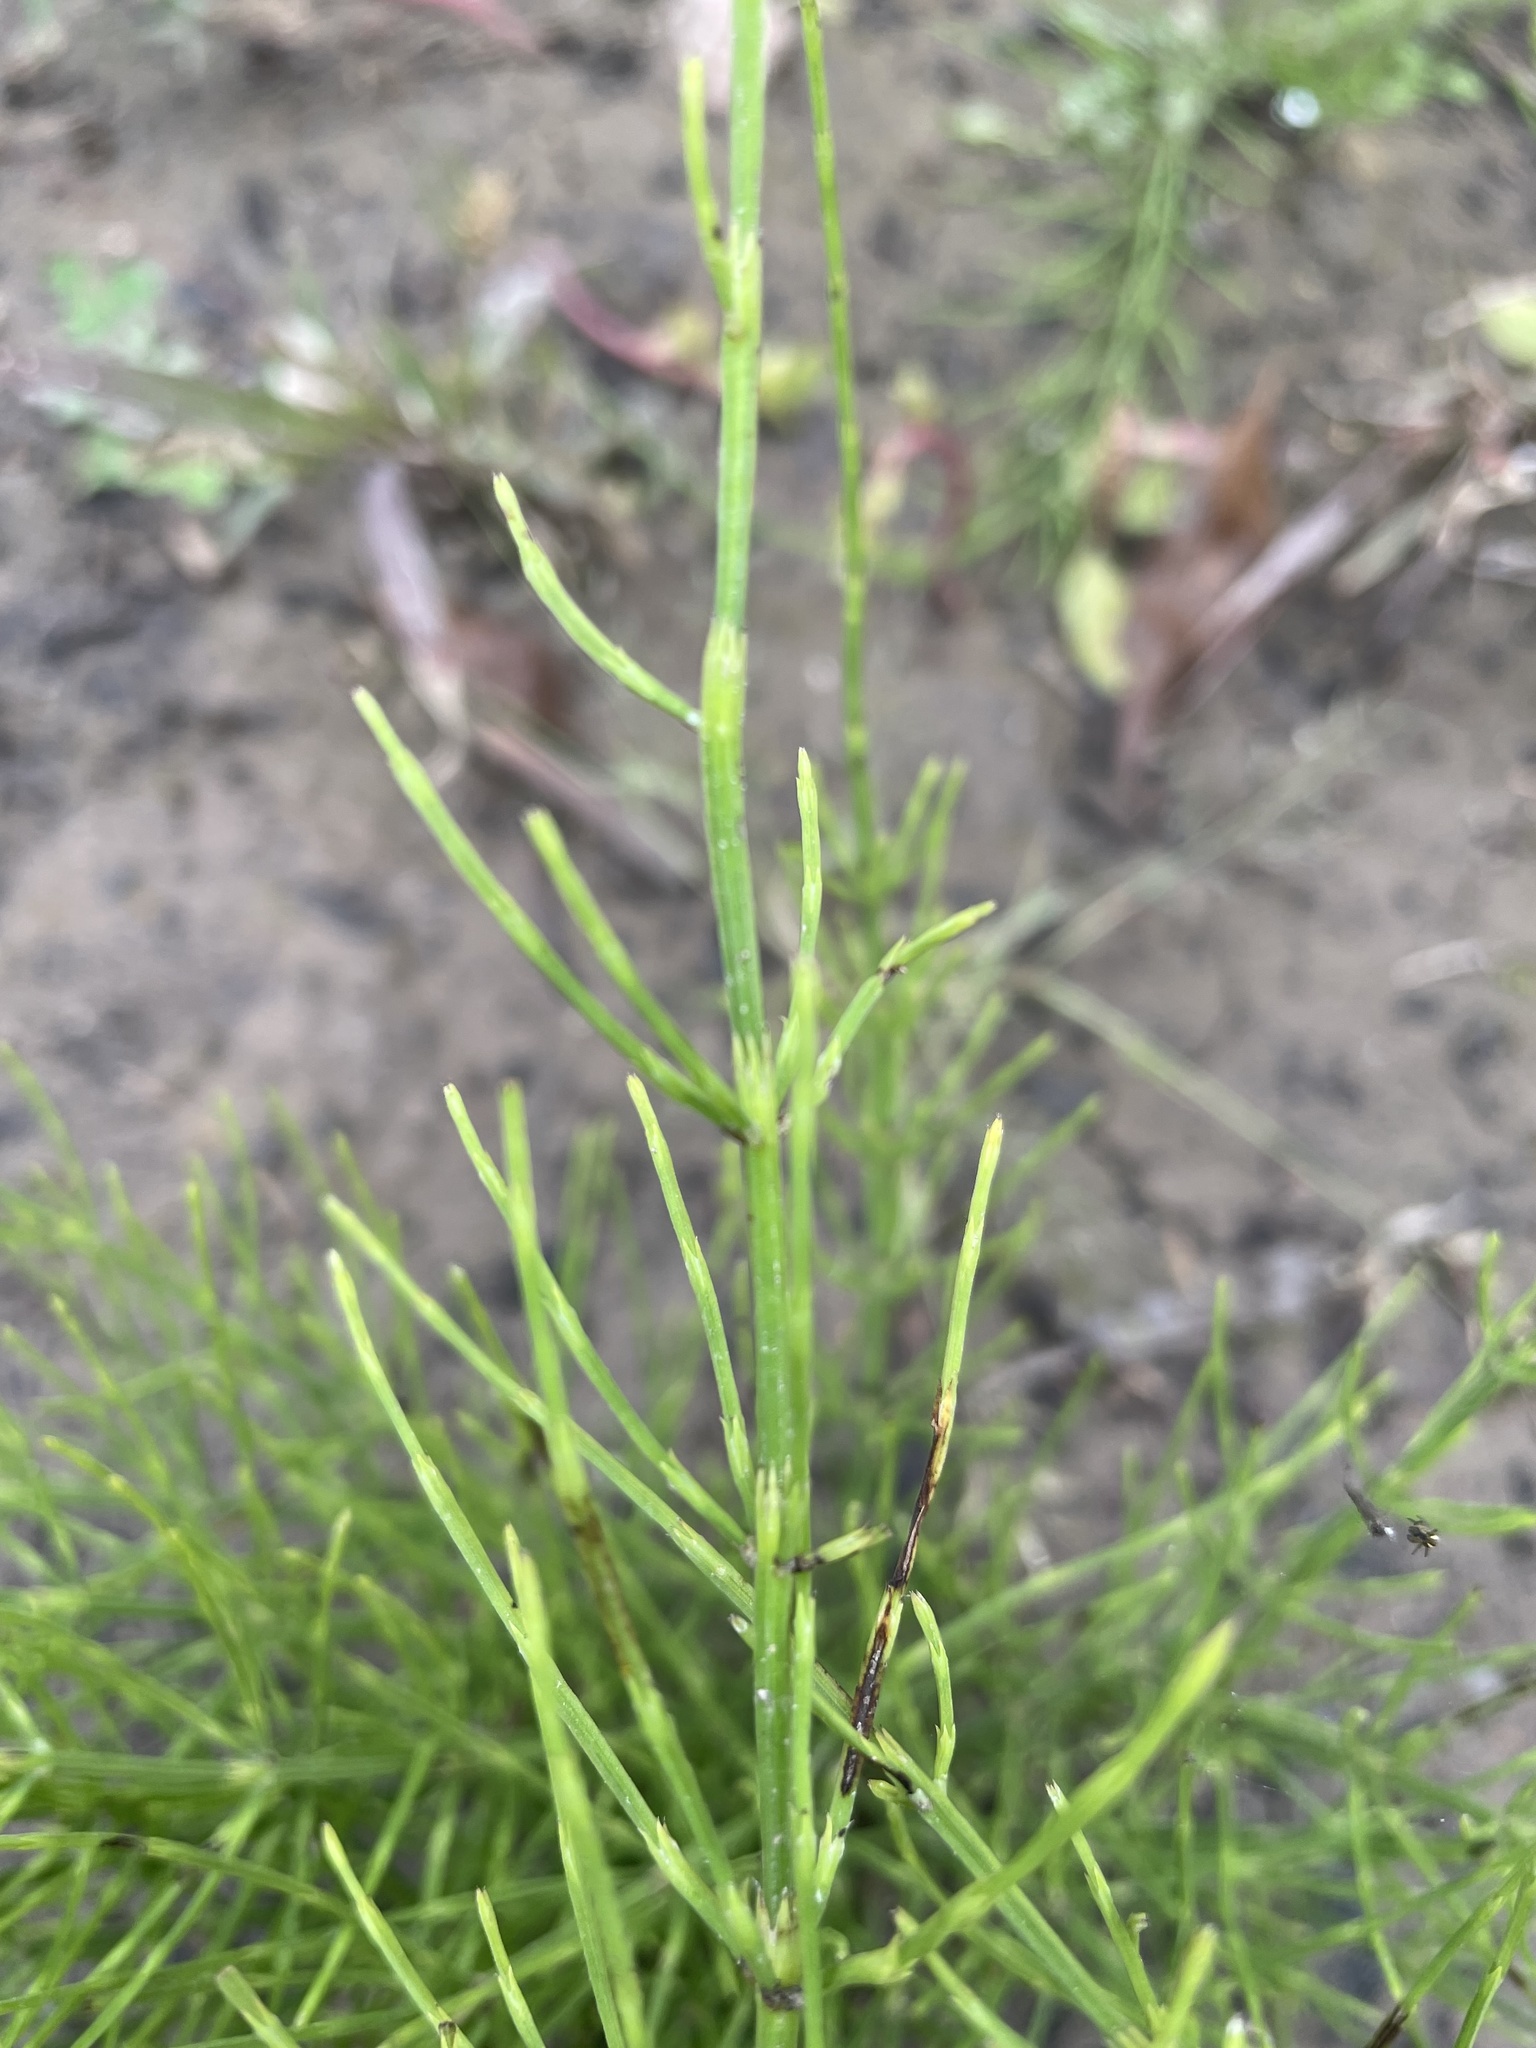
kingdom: Plantae
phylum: Tracheophyta
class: Polypodiopsida
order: Equisetales
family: Equisetaceae
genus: Equisetum
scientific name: Equisetum arvense
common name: Field horsetail
